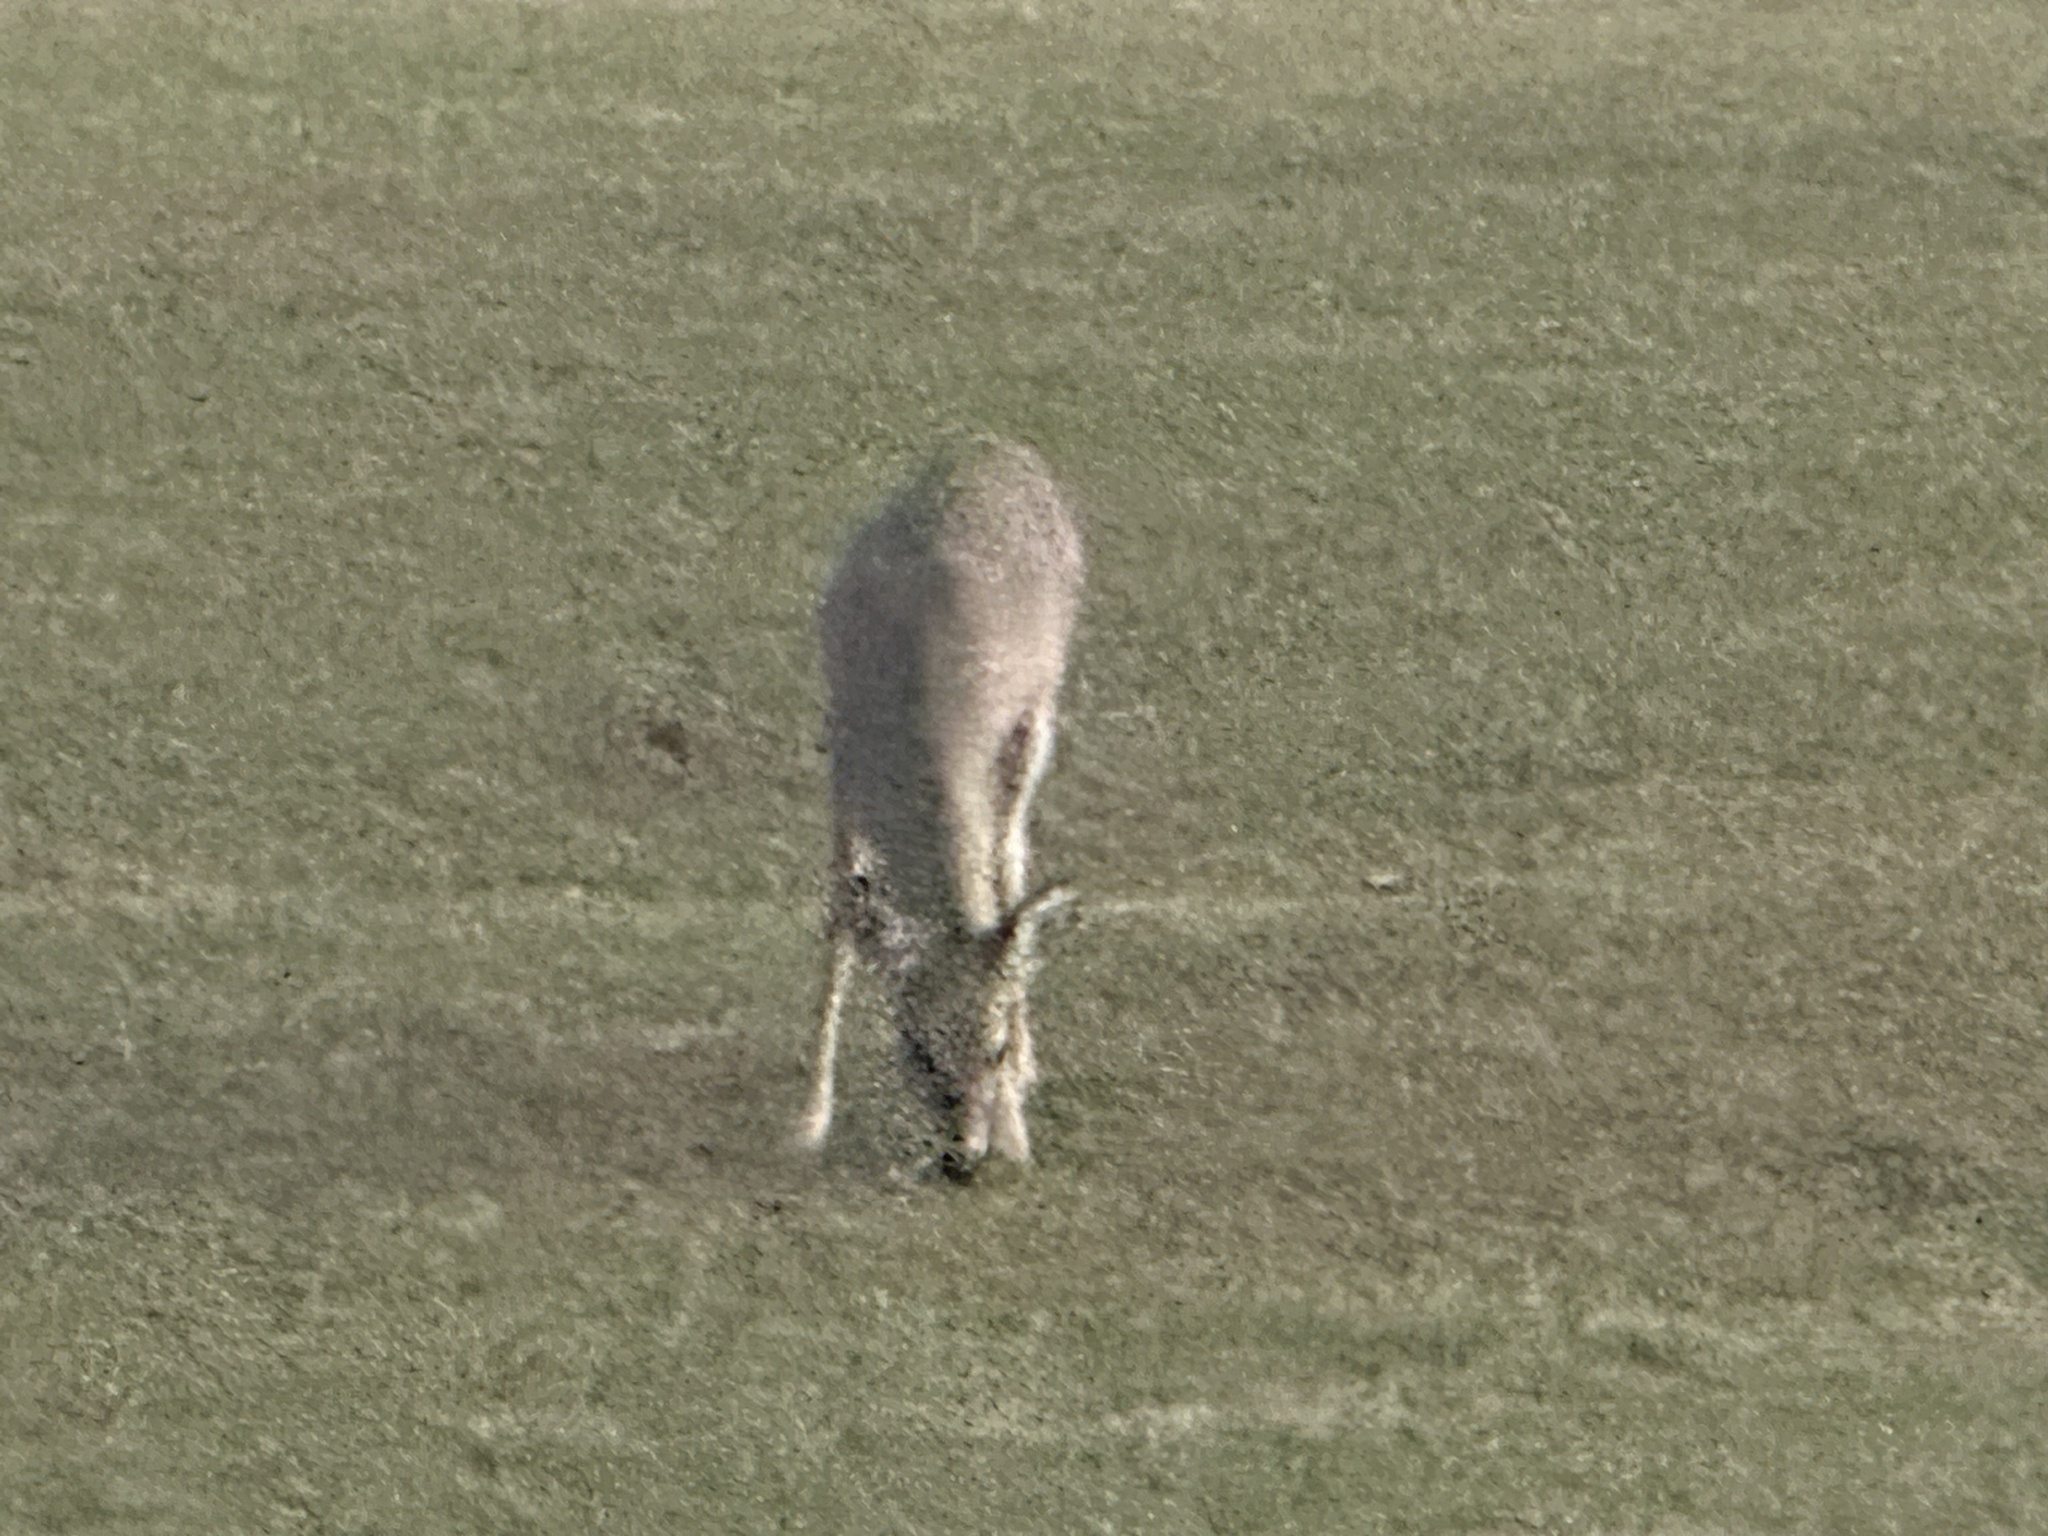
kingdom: Animalia
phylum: Chordata
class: Mammalia
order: Artiodactyla
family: Cervidae
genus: Odocoileus
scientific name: Odocoileus virginianus
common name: White-tailed deer
